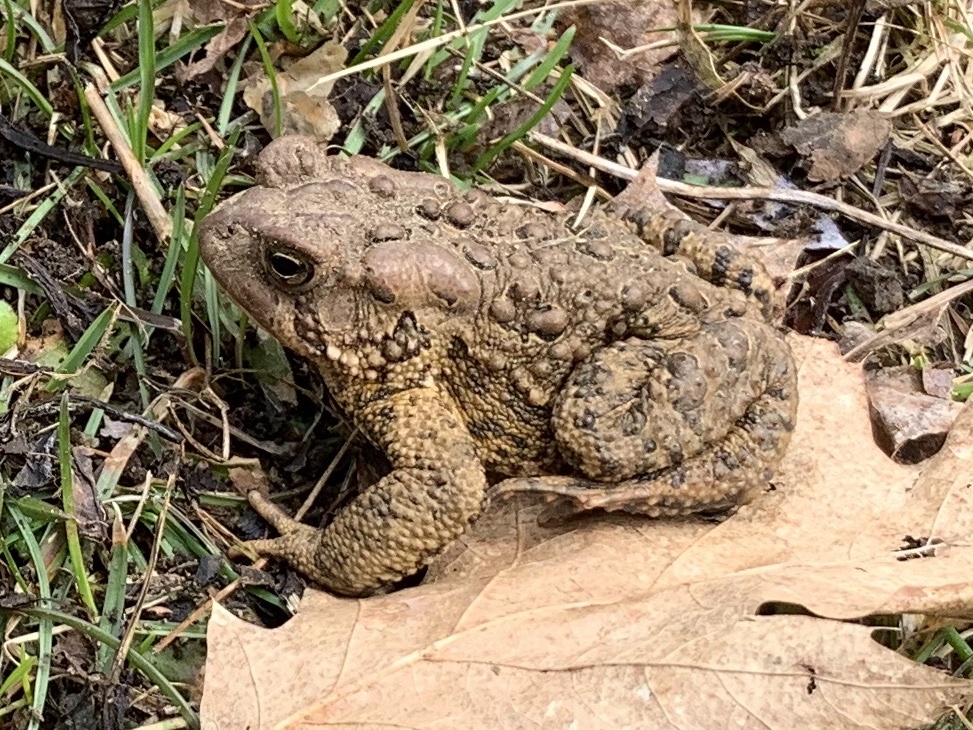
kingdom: Animalia
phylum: Chordata
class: Amphibia
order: Anura
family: Bufonidae
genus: Anaxyrus
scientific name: Anaxyrus americanus
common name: American toad
